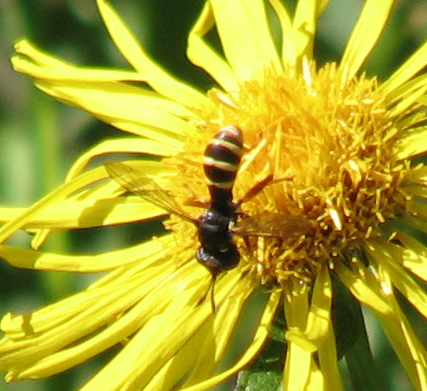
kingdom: Animalia
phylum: Arthropoda
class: Insecta
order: Diptera
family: Conopidae
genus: Conops
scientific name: Conops quadrifasciatus
